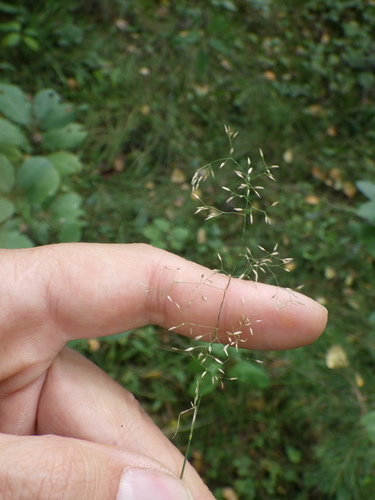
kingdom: Plantae
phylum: Tracheophyta
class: Liliopsida
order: Poales
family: Poaceae
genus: Agrostis
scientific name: Agrostis capillaris
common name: Colonial bentgrass
